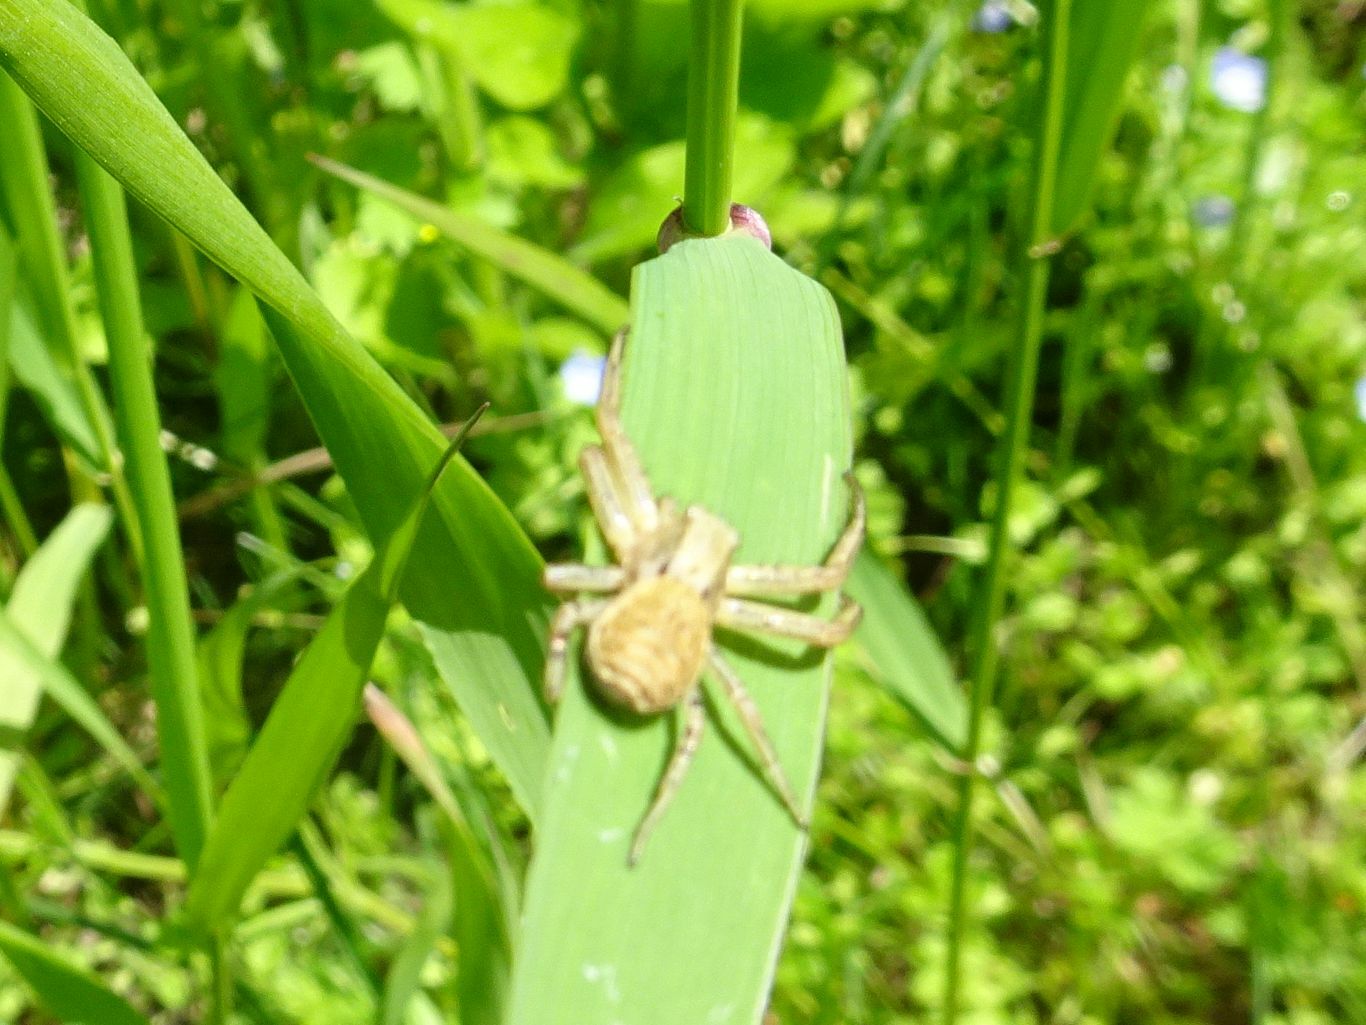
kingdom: Animalia
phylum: Arthropoda
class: Arachnida
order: Araneae
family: Thomisidae
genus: Xysticus
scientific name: Xysticus
